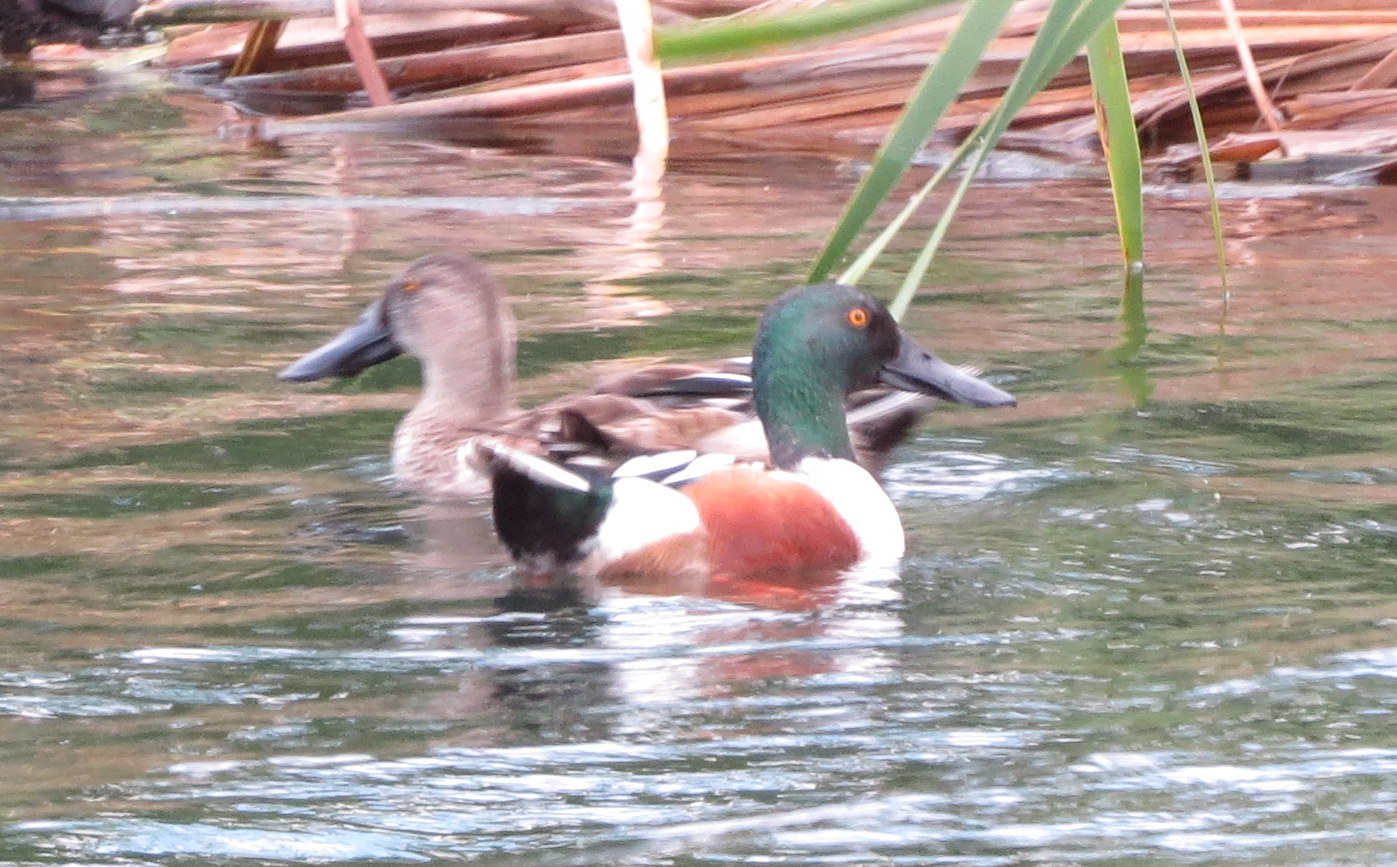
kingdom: Animalia
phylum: Chordata
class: Aves
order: Anseriformes
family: Anatidae
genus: Spatula
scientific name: Spatula clypeata
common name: Northern shoveler
